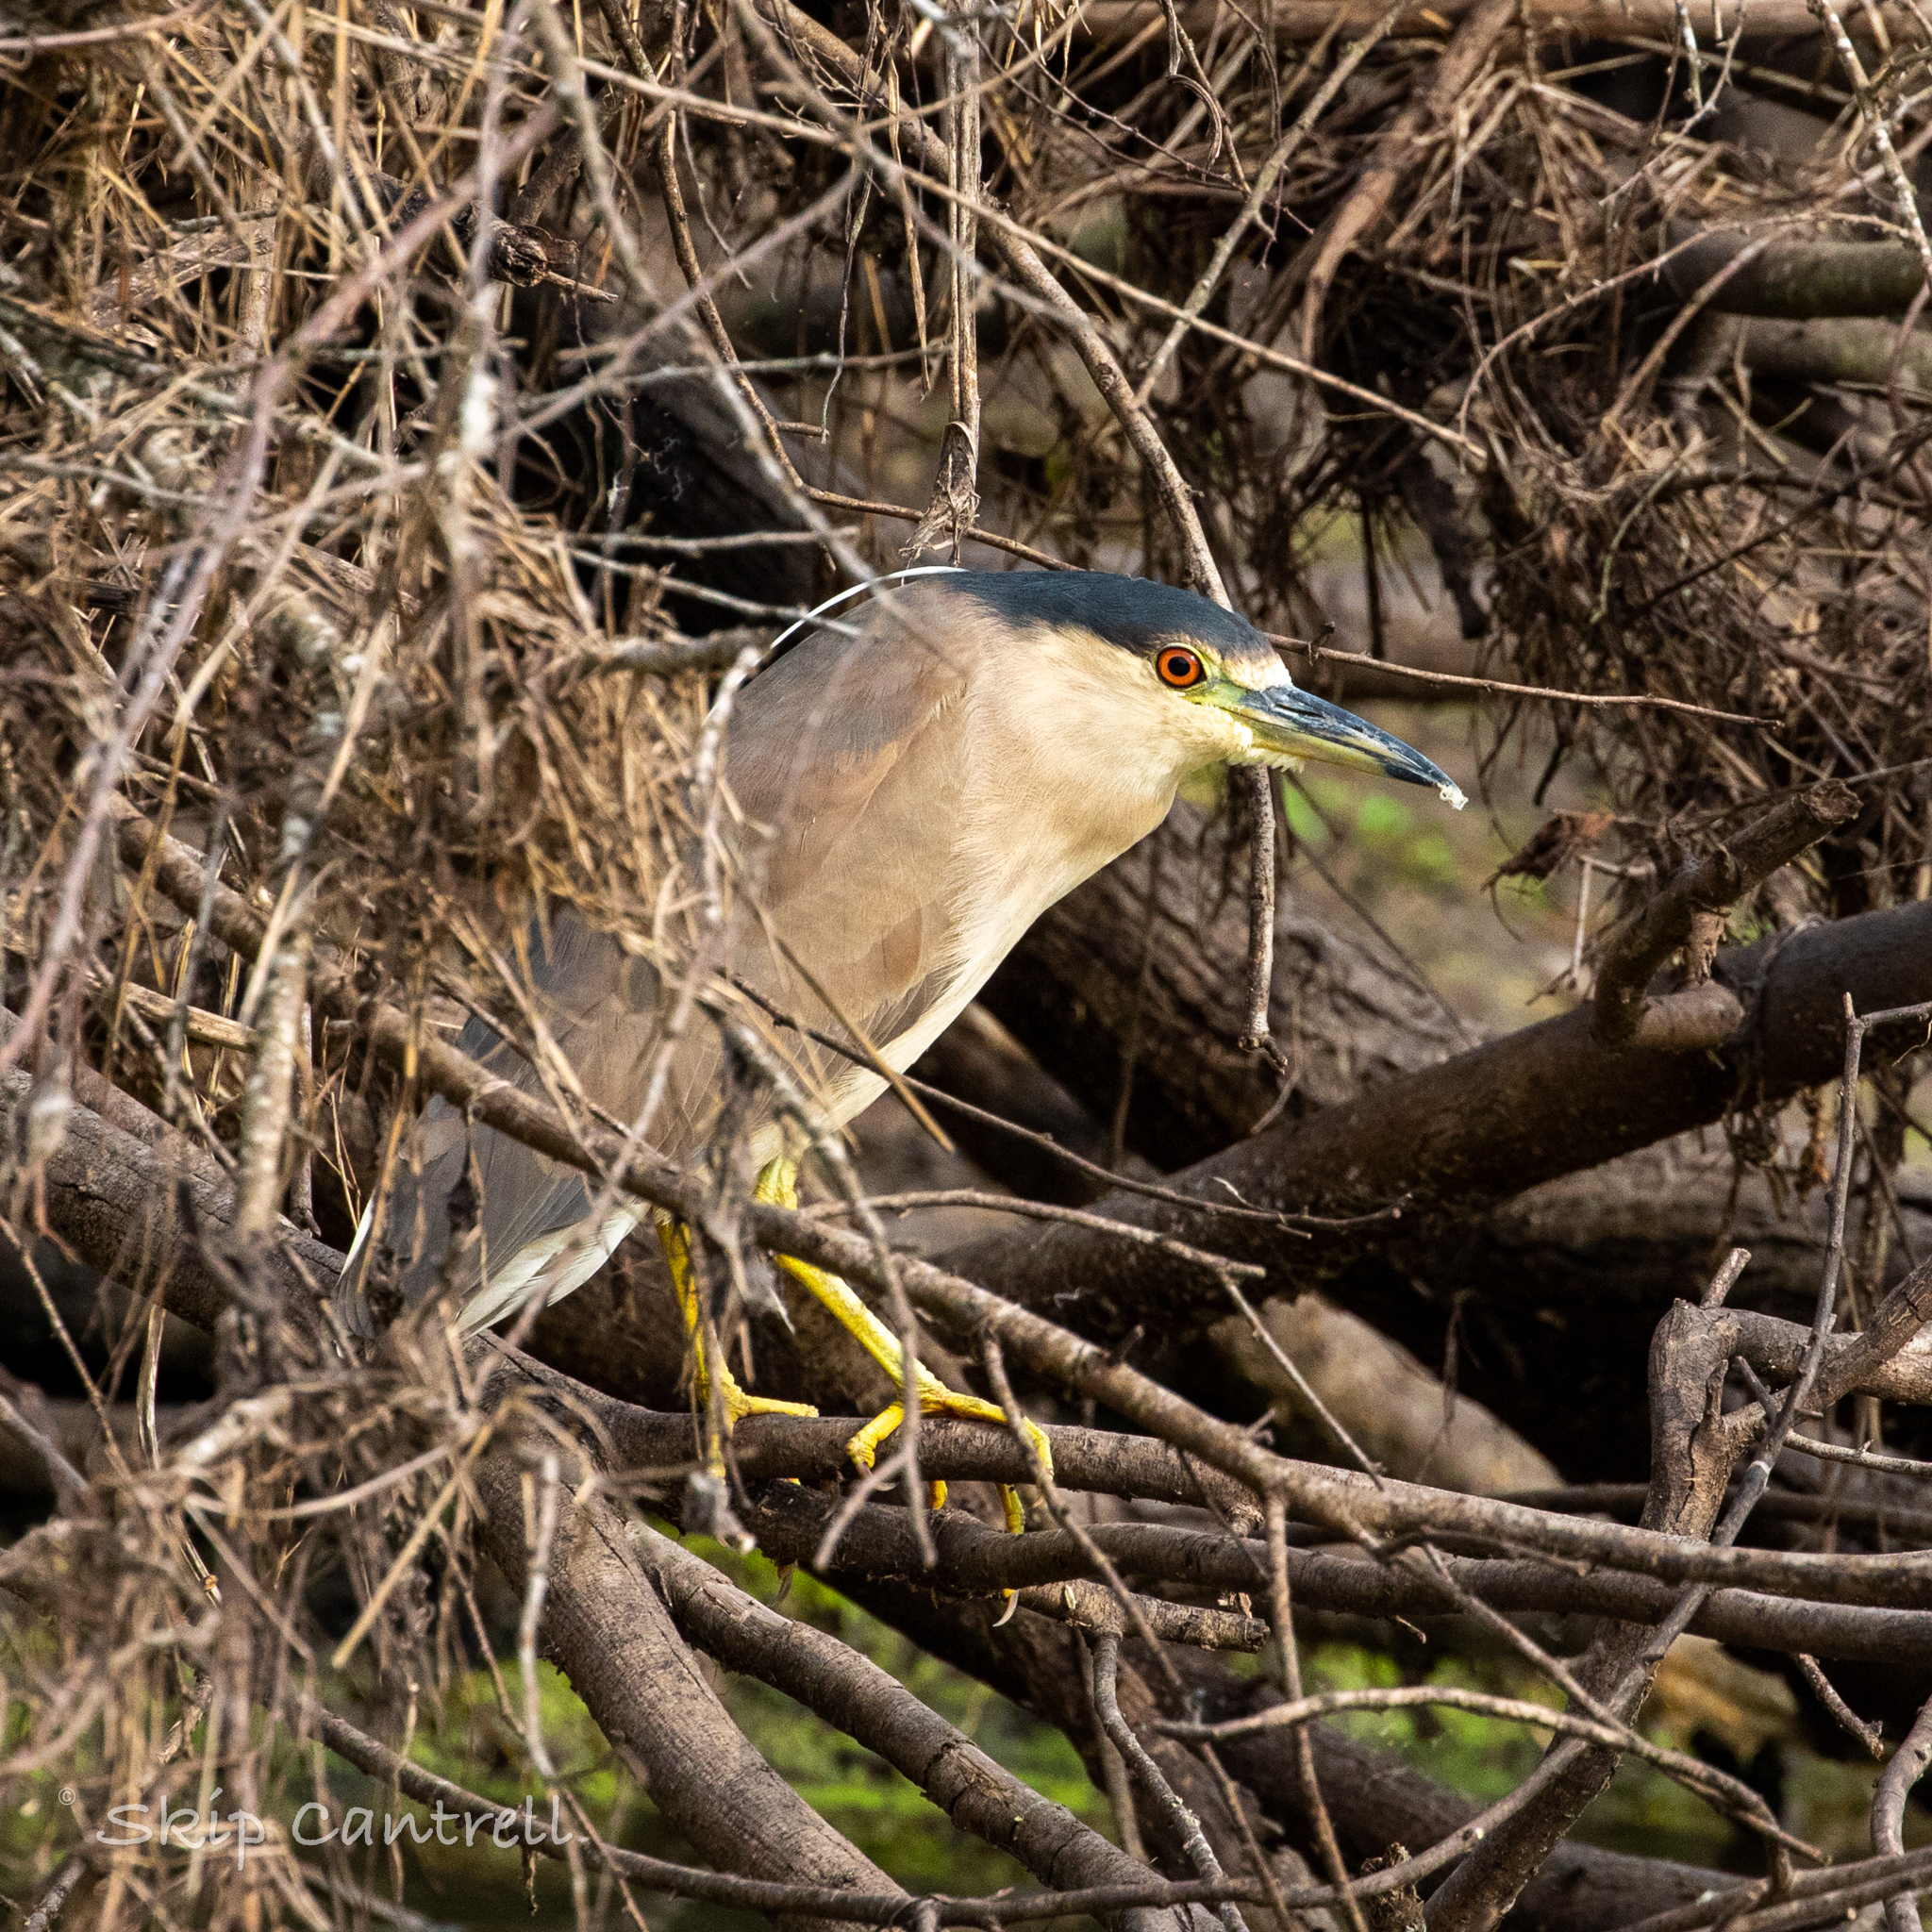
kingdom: Animalia
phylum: Chordata
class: Aves
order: Pelecaniformes
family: Ardeidae
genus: Nycticorax
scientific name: Nycticorax nycticorax
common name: Black-crowned night heron
